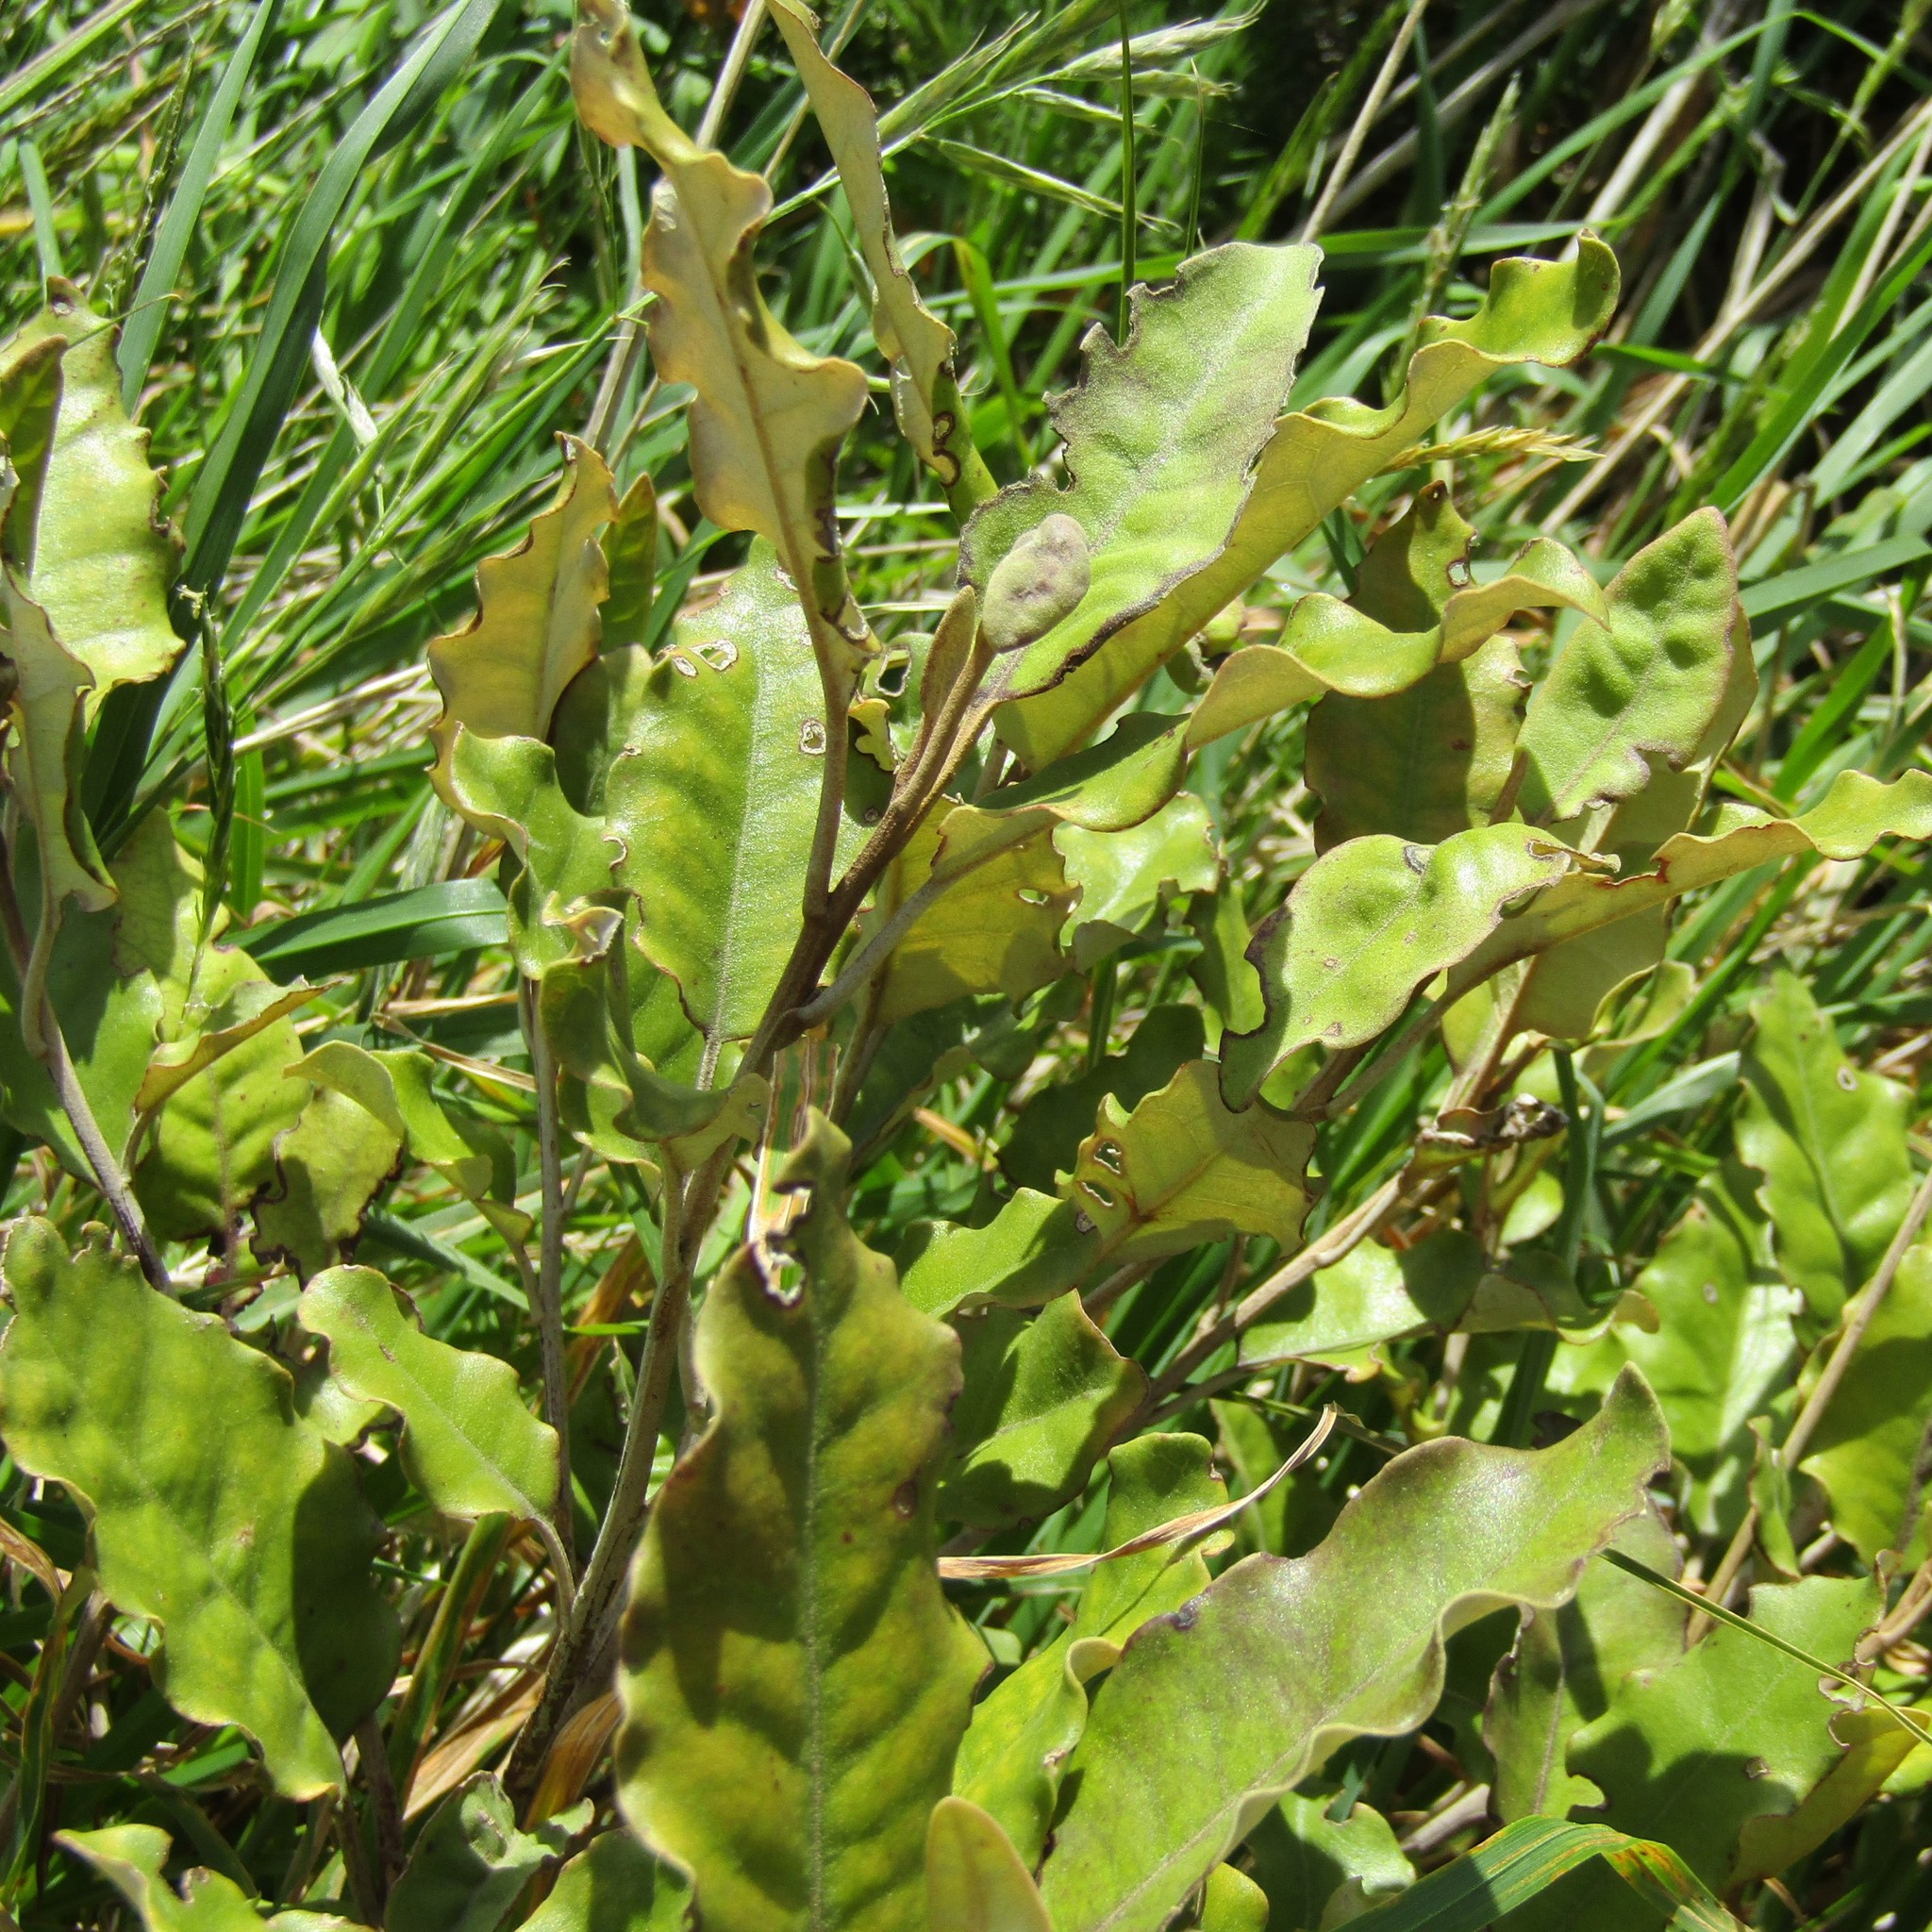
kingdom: Plantae
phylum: Tracheophyta
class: Magnoliopsida
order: Asterales
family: Asteraceae
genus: Olearia
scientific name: Olearia paniculata
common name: Akiraho
